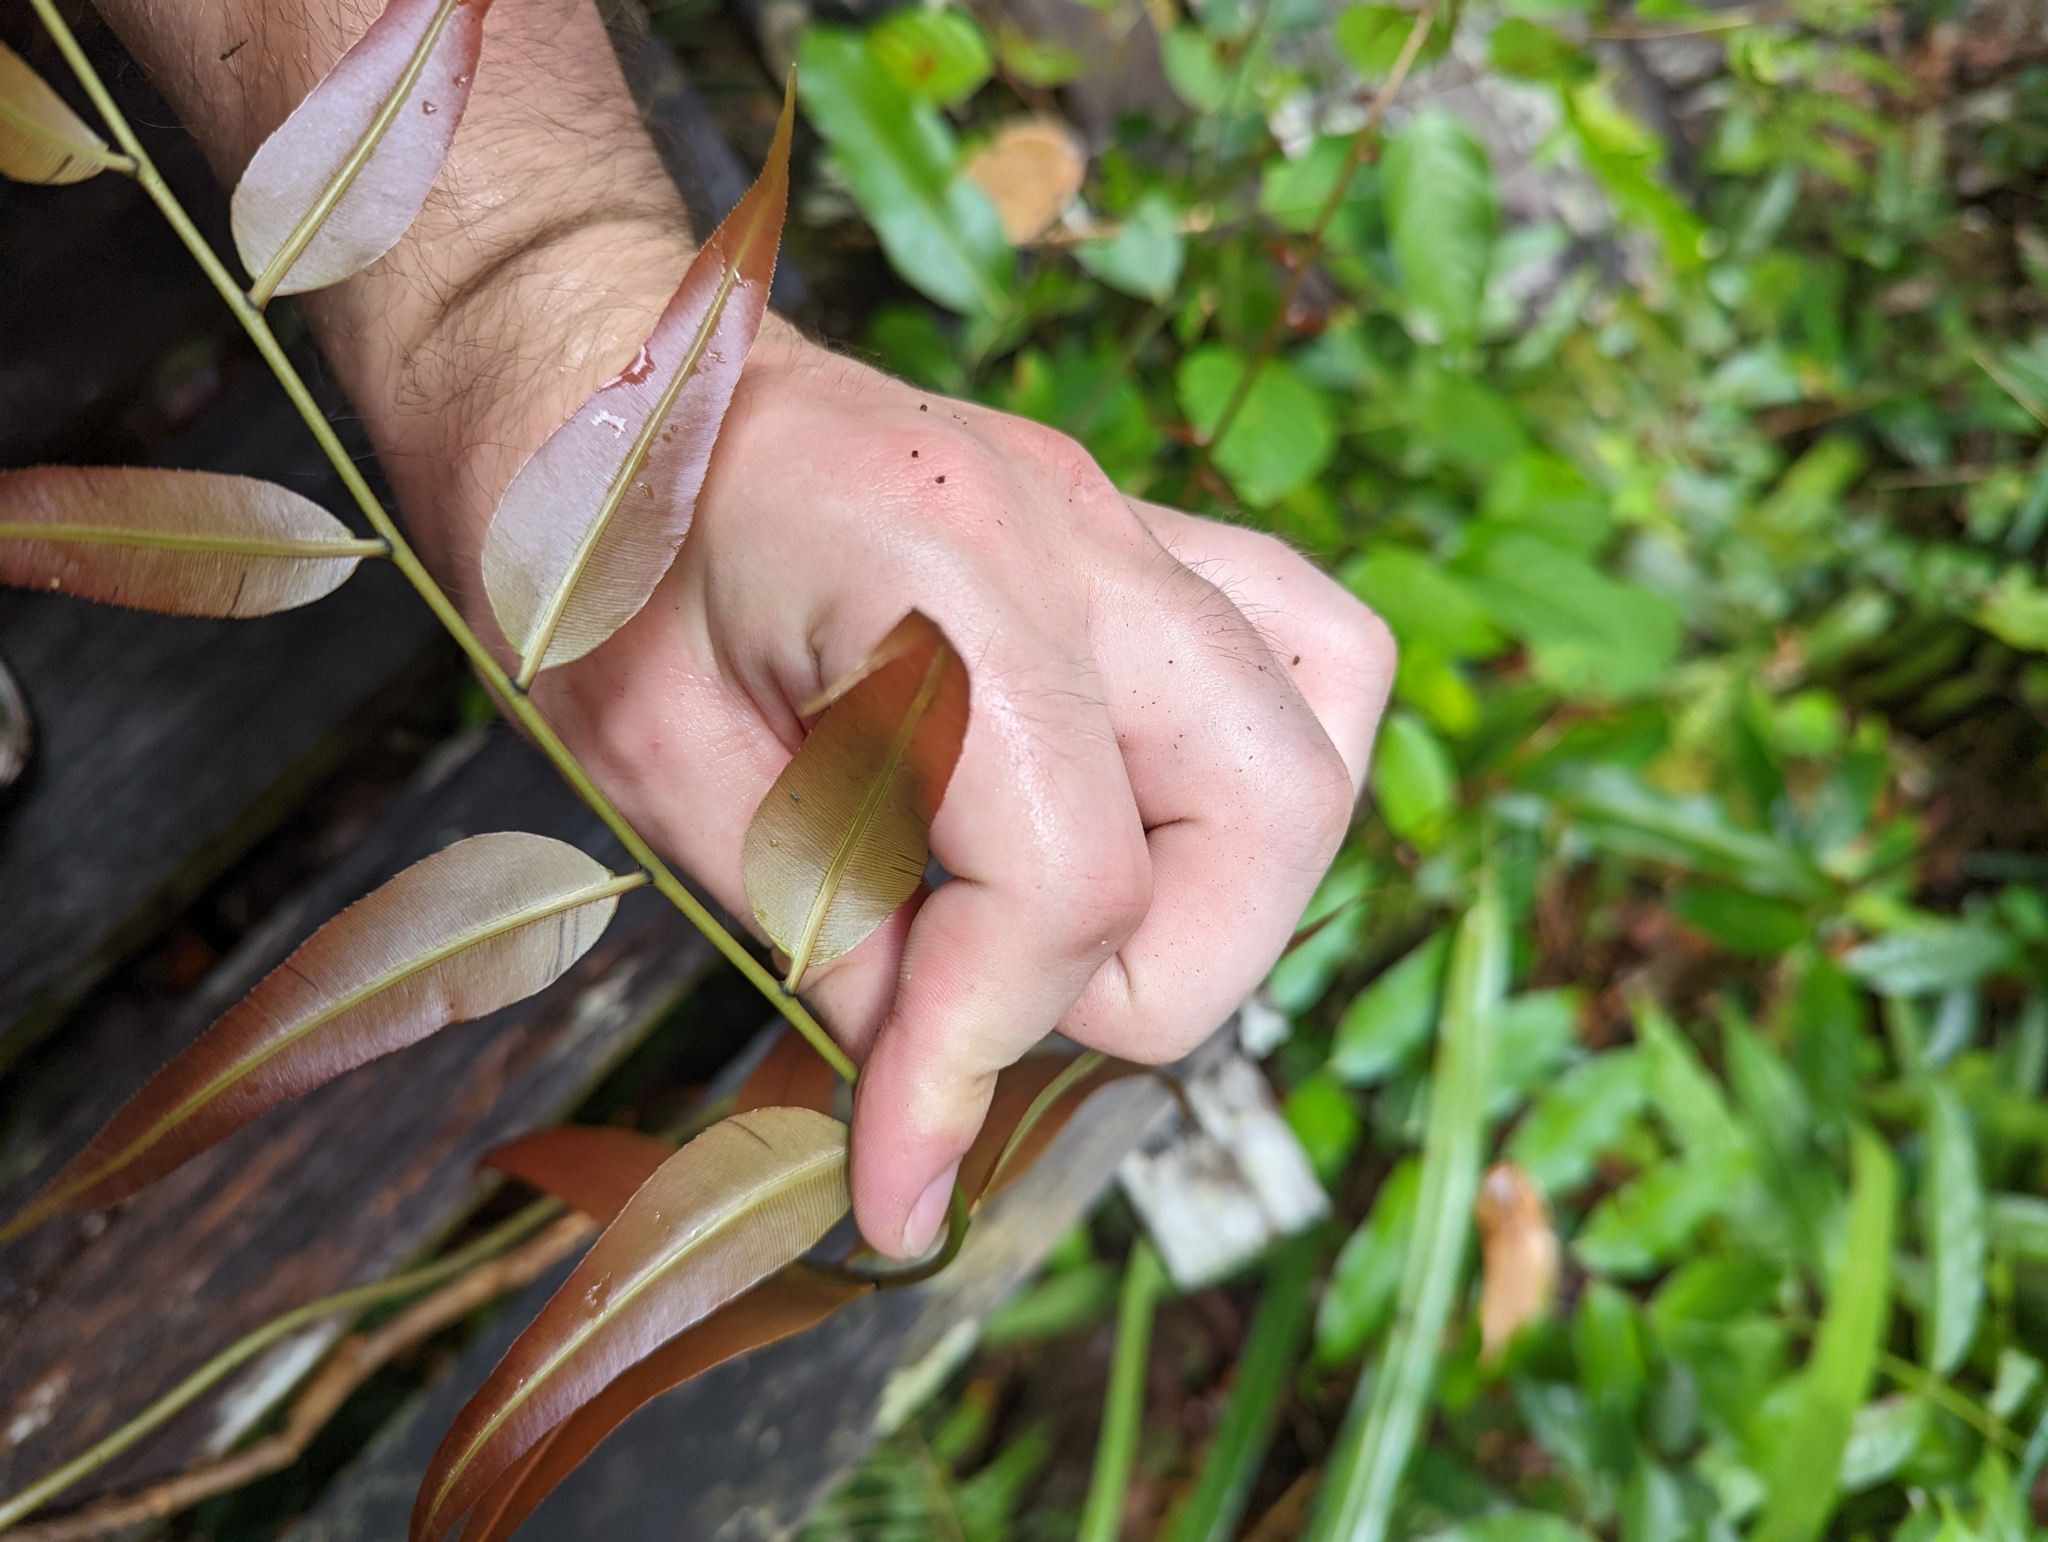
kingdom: Plantae
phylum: Tracheophyta
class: Polypodiopsida
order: Polypodiales
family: Blechnaceae
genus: Stenochlaena
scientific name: Stenochlaena palustris
